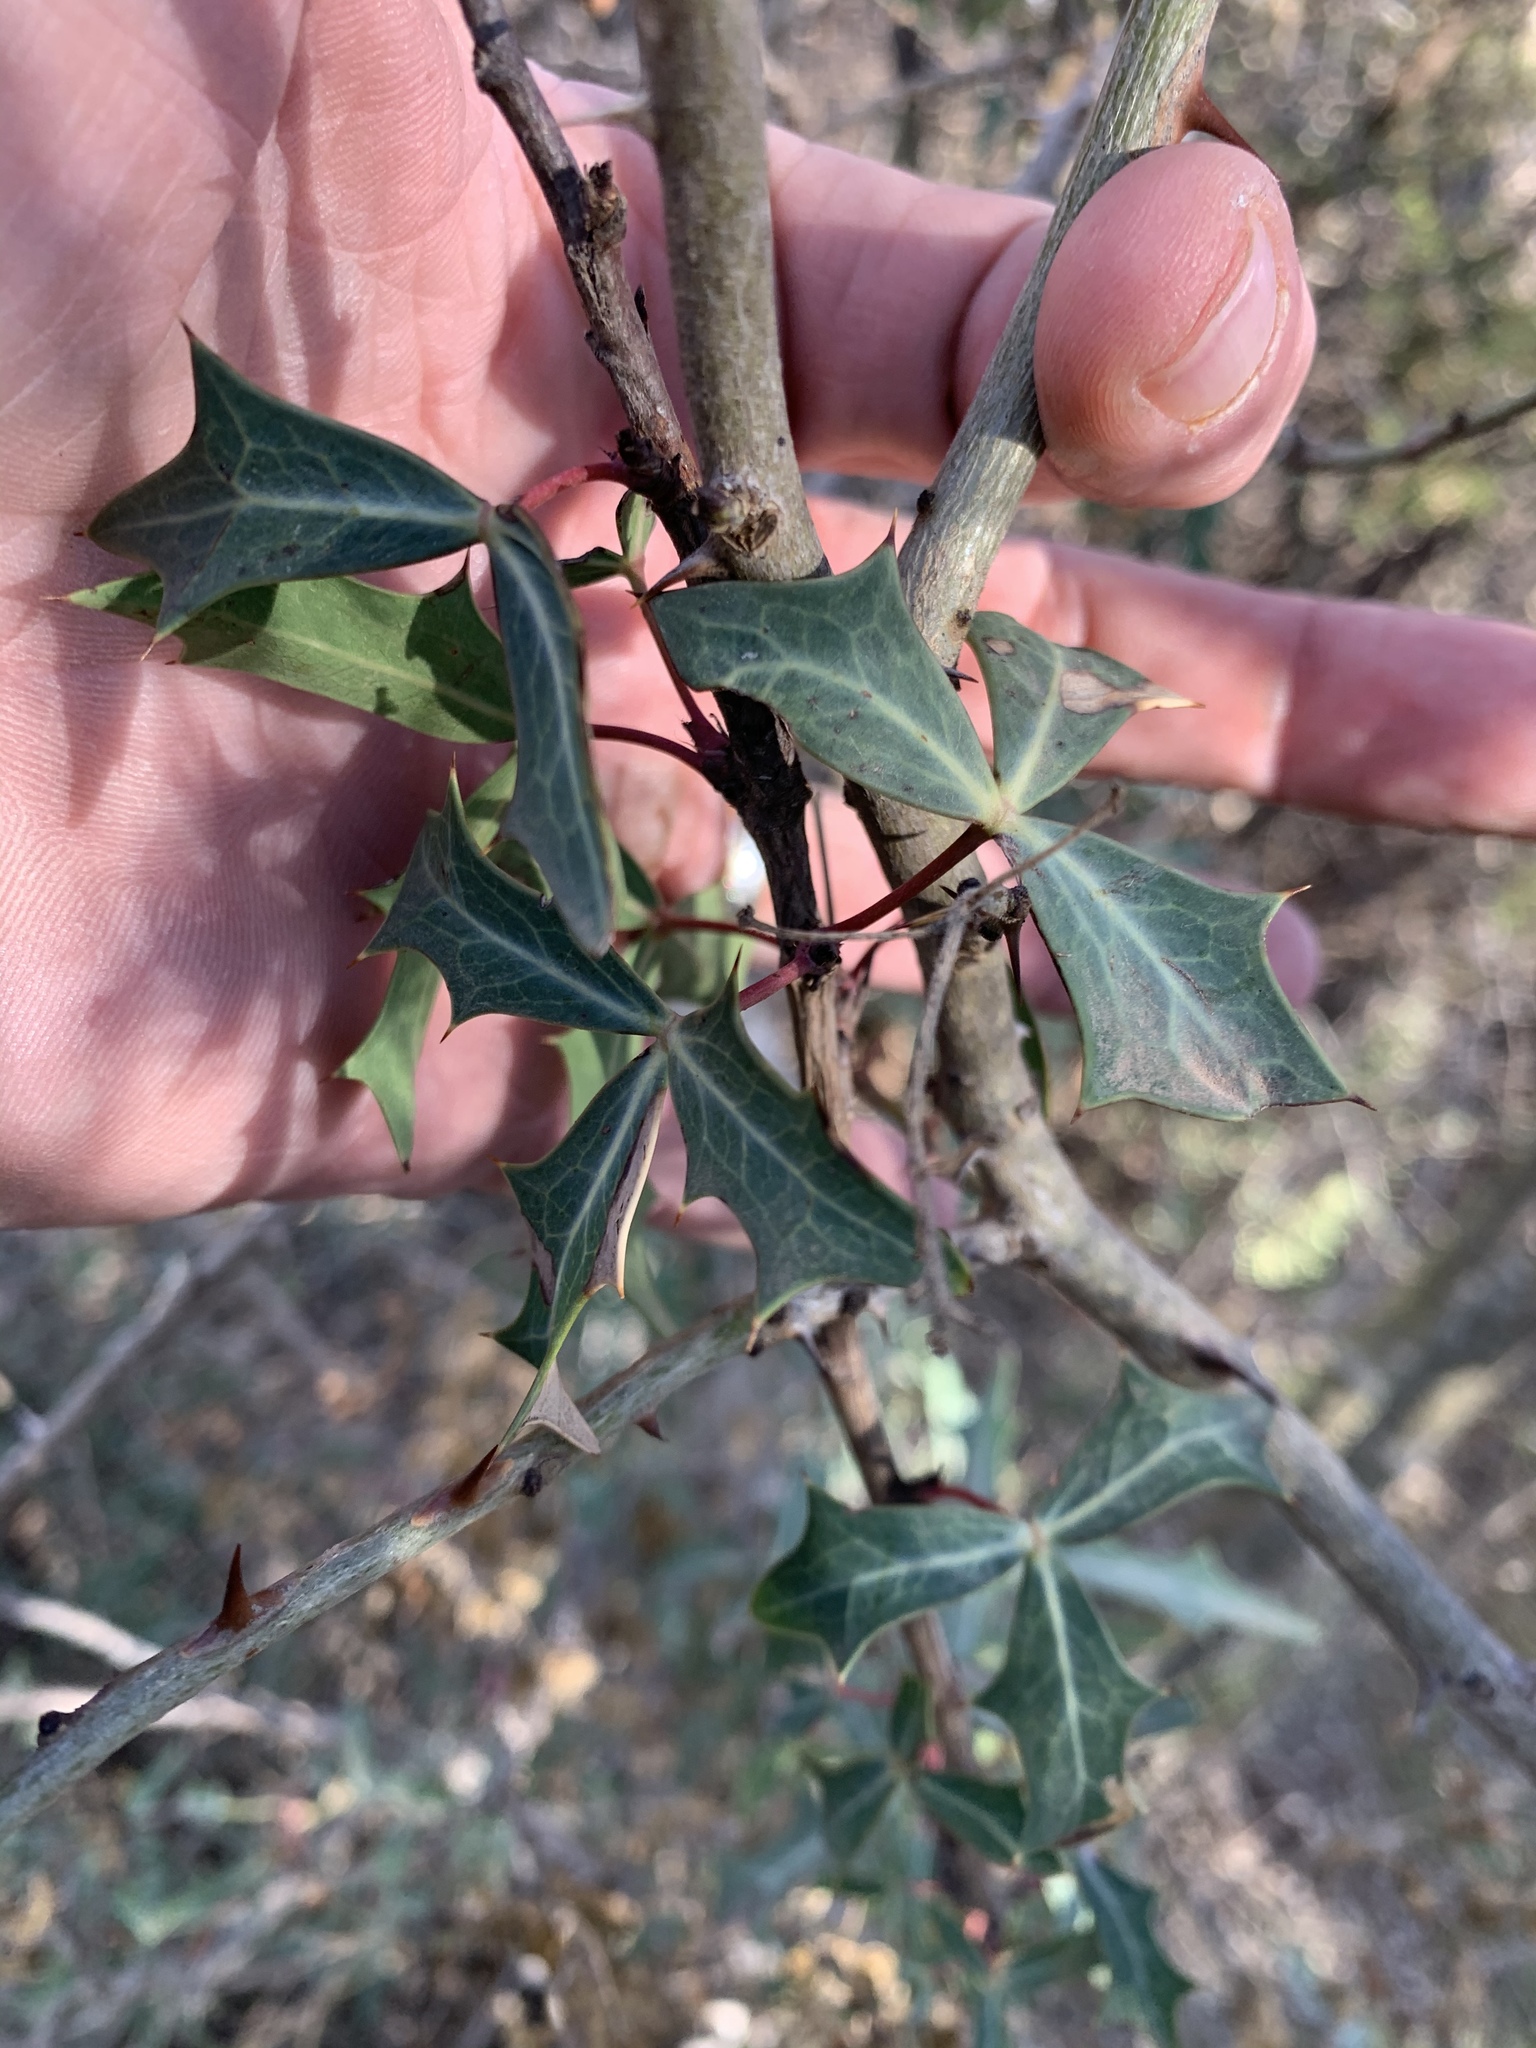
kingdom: Plantae
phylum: Tracheophyta
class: Magnoliopsida
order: Ranunculales
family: Berberidaceae
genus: Alloberberis
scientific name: Alloberberis trifoliolata
